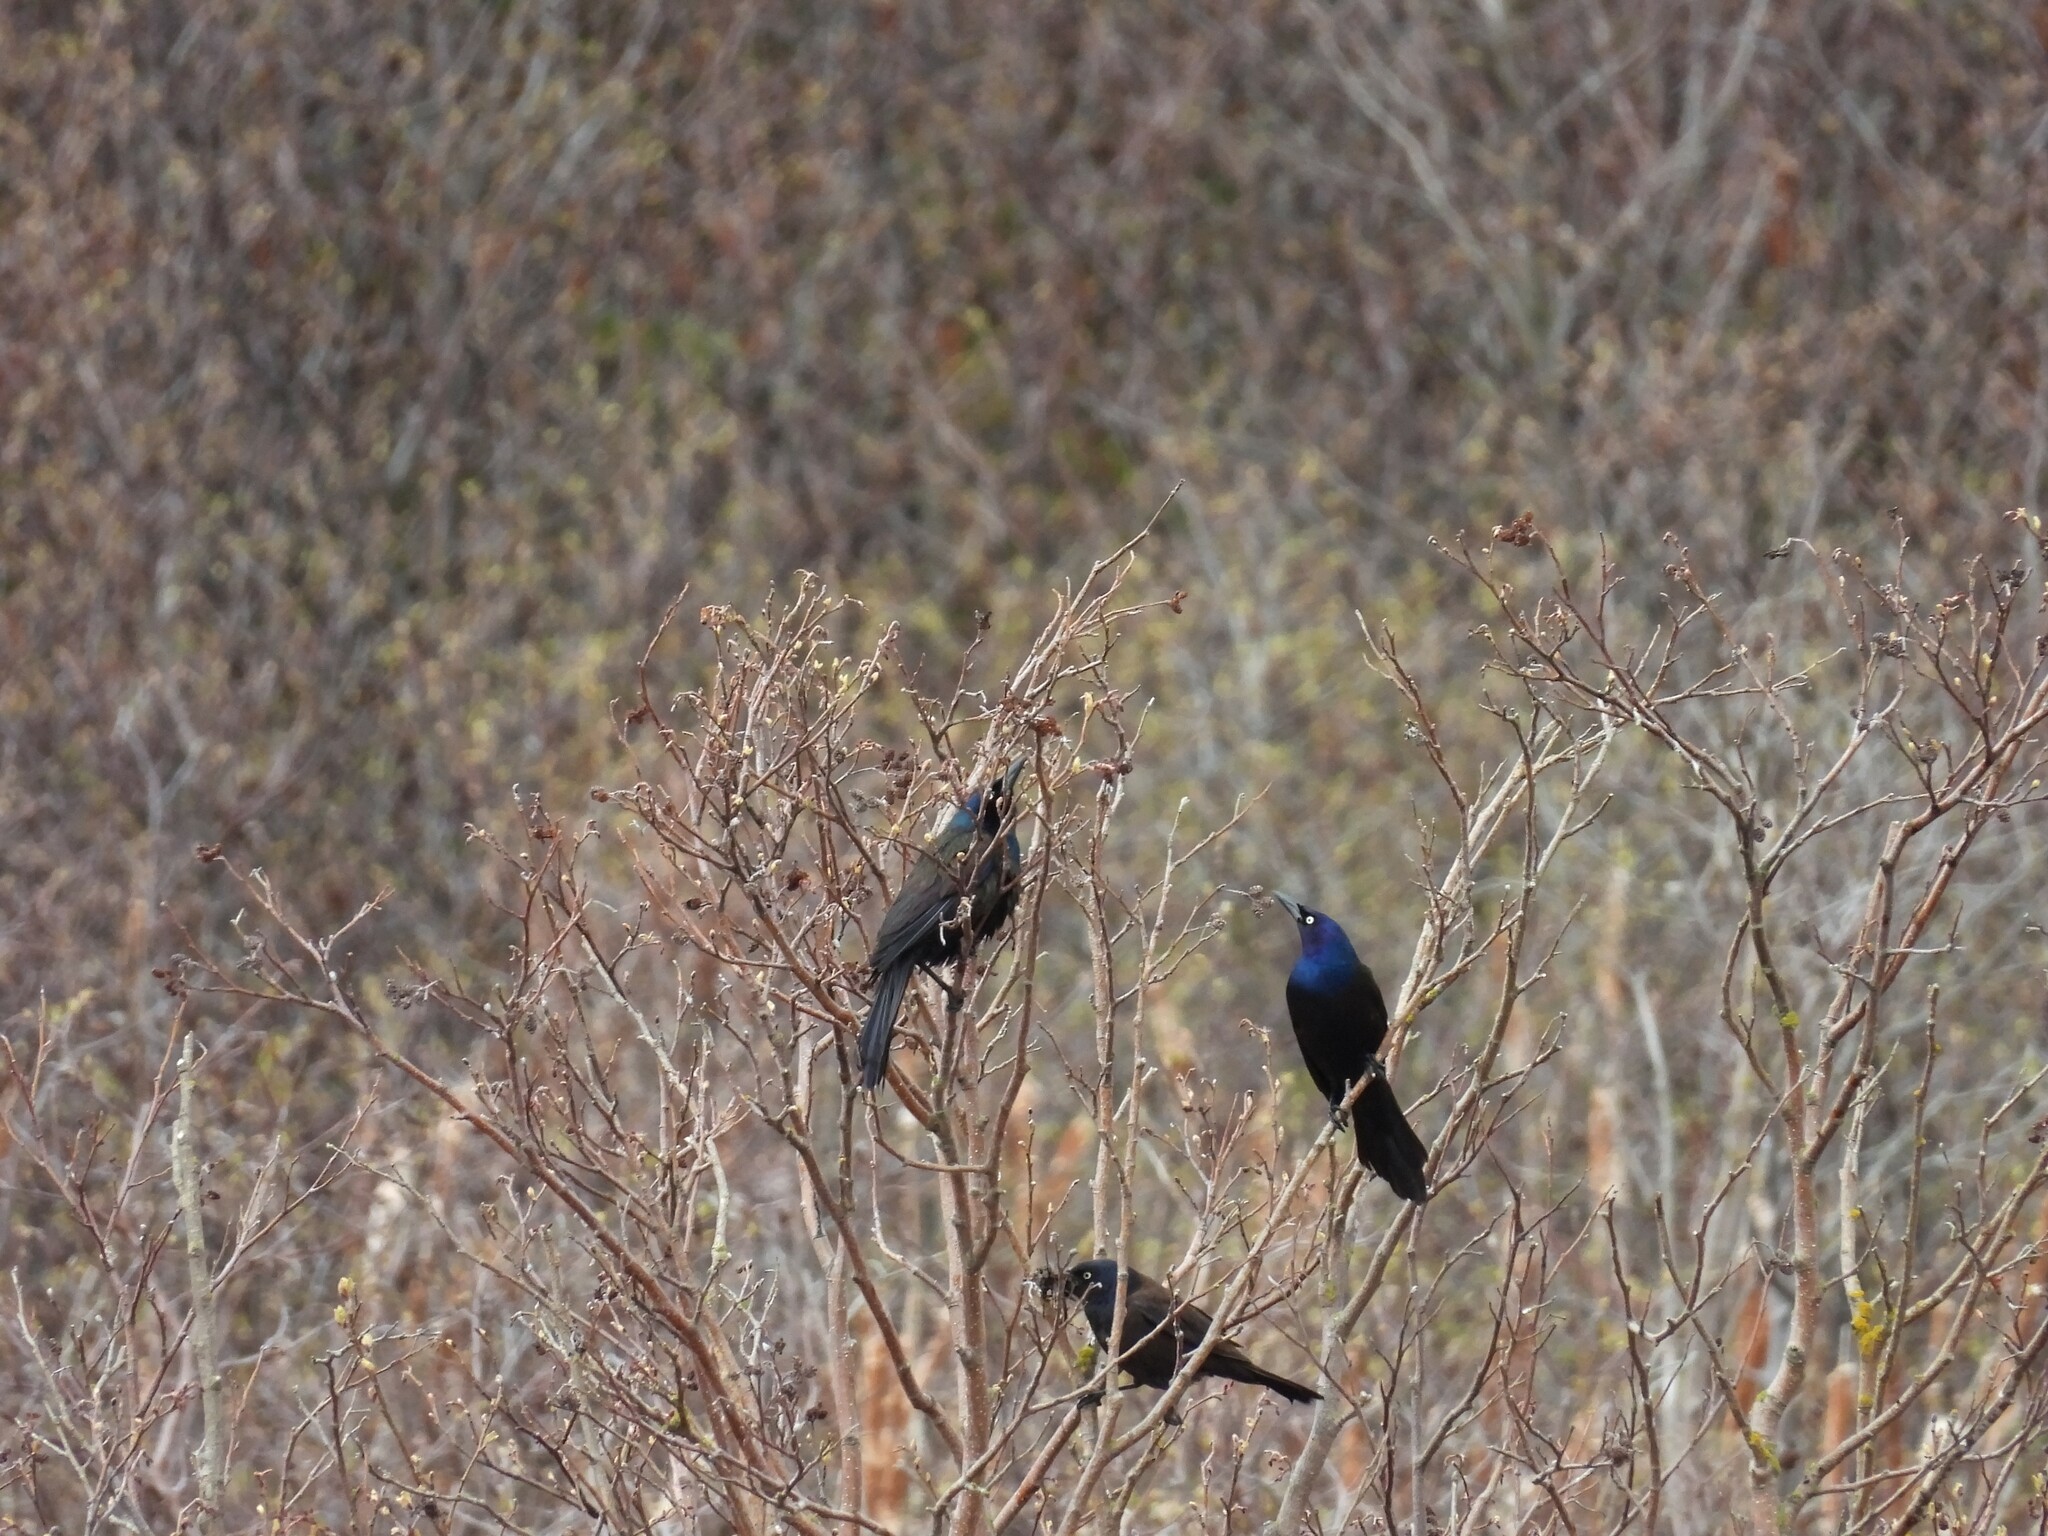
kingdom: Animalia
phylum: Chordata
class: Aves
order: Passeriformes
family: Icteridae
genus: Quiscalus
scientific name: Quiscalus quiscula
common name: Common grackle
